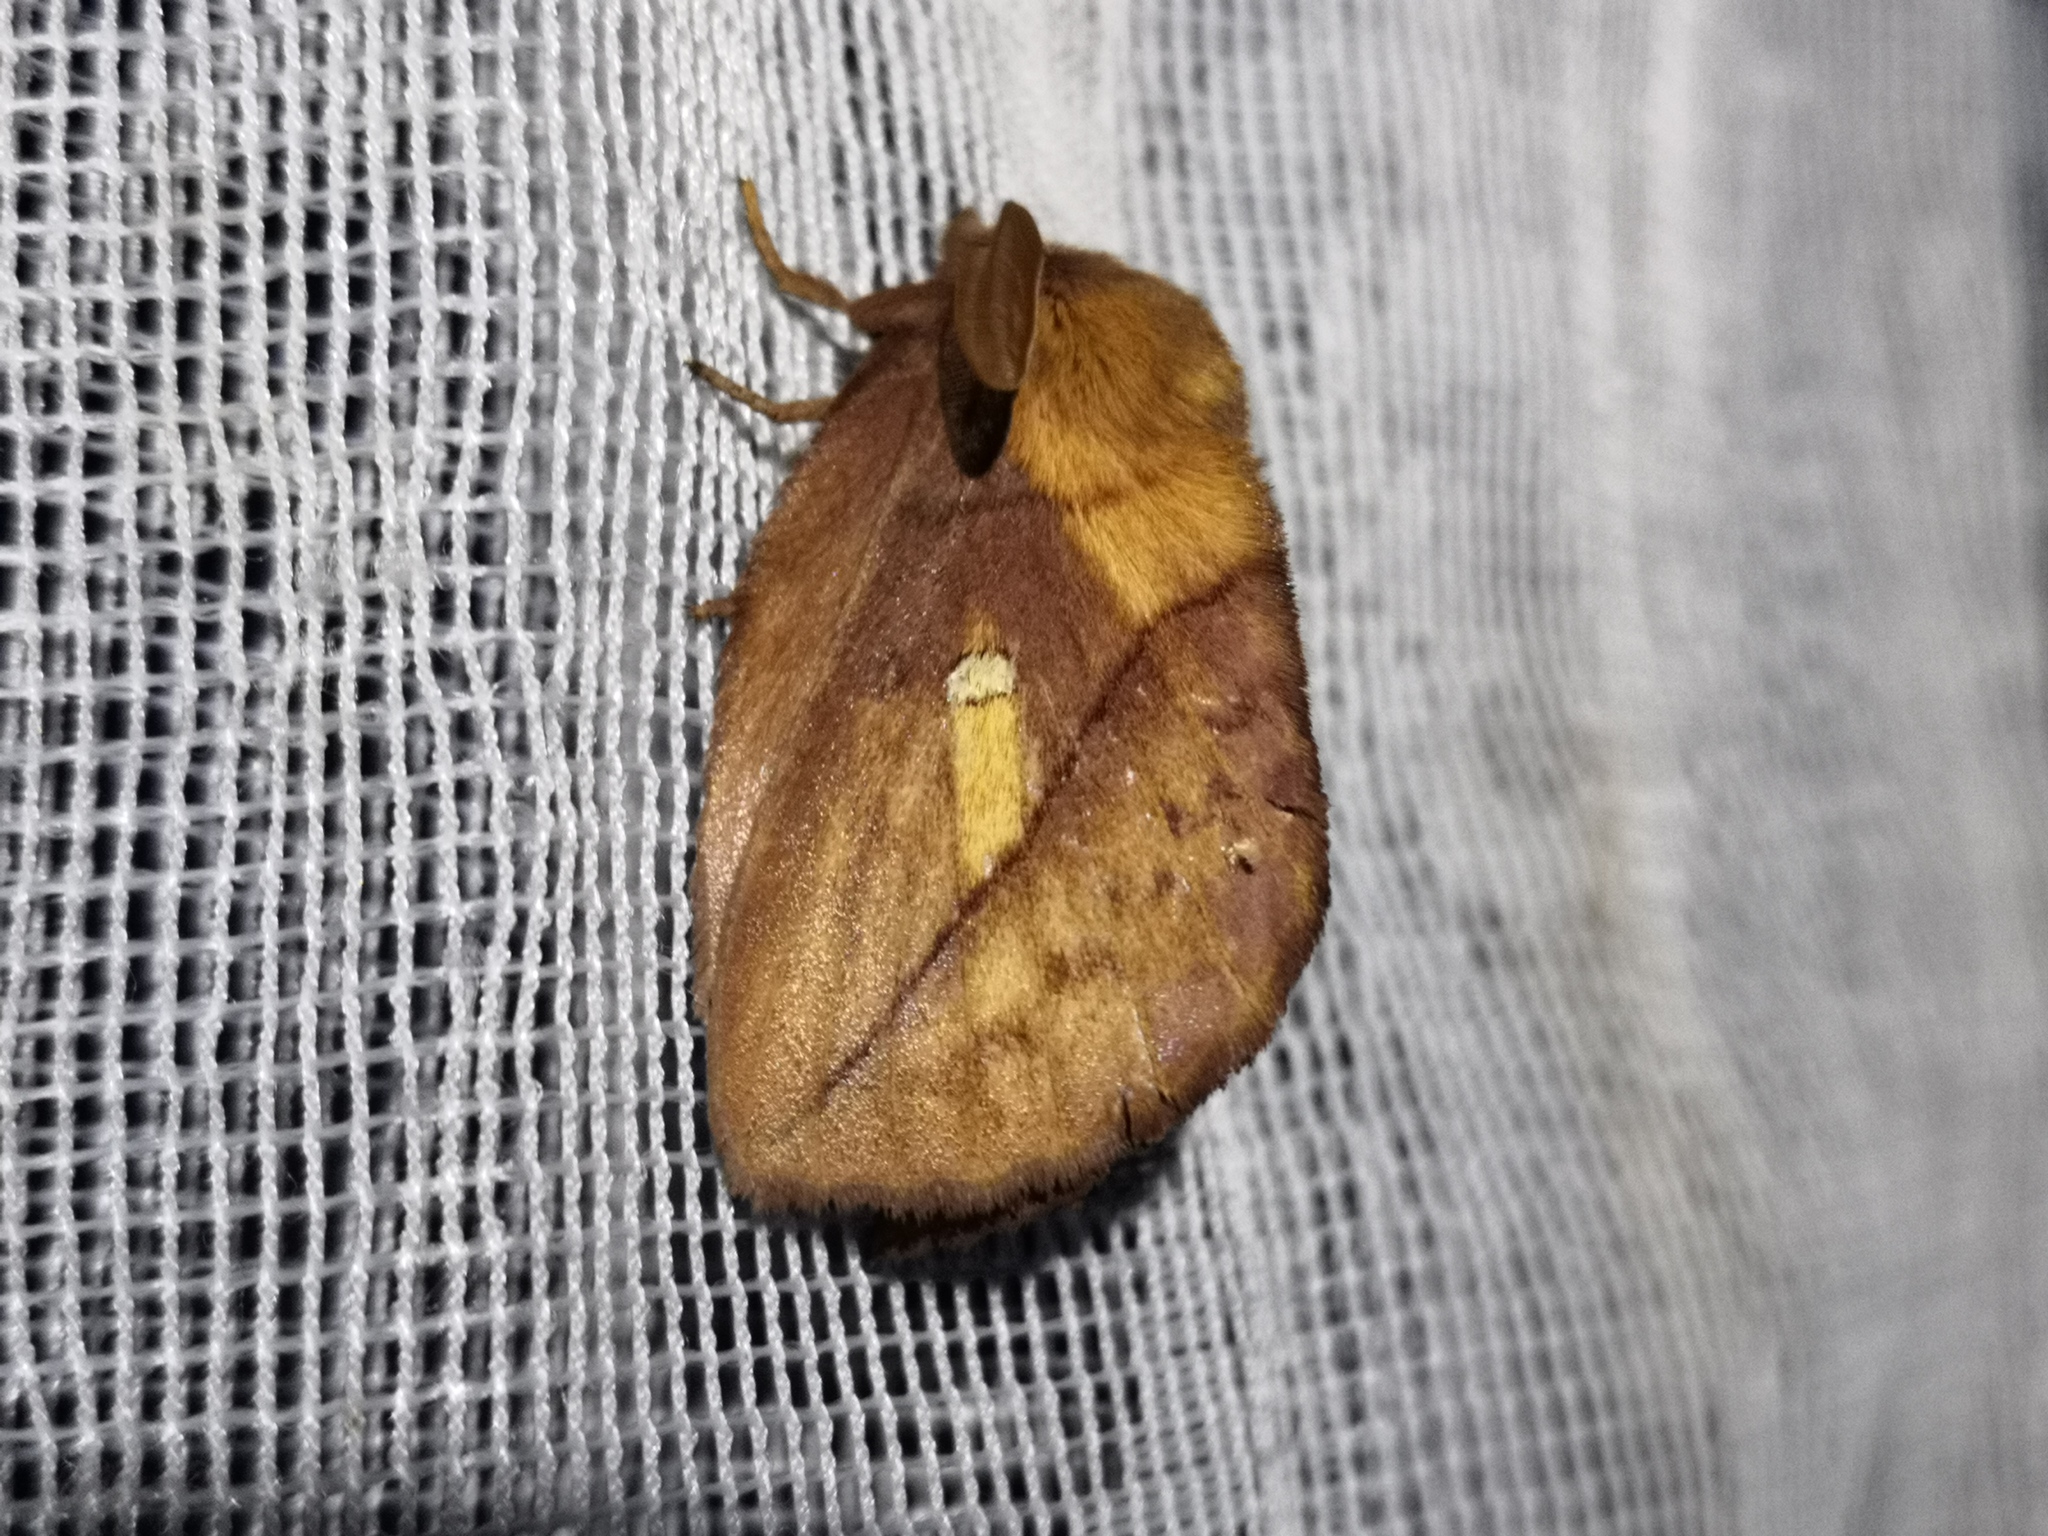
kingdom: Animalia
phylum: Arthropoda
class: Insecta
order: Lepidoptera
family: Lasiocampidae
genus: Euthrix
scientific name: Euthrix potatoria
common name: Drinker
